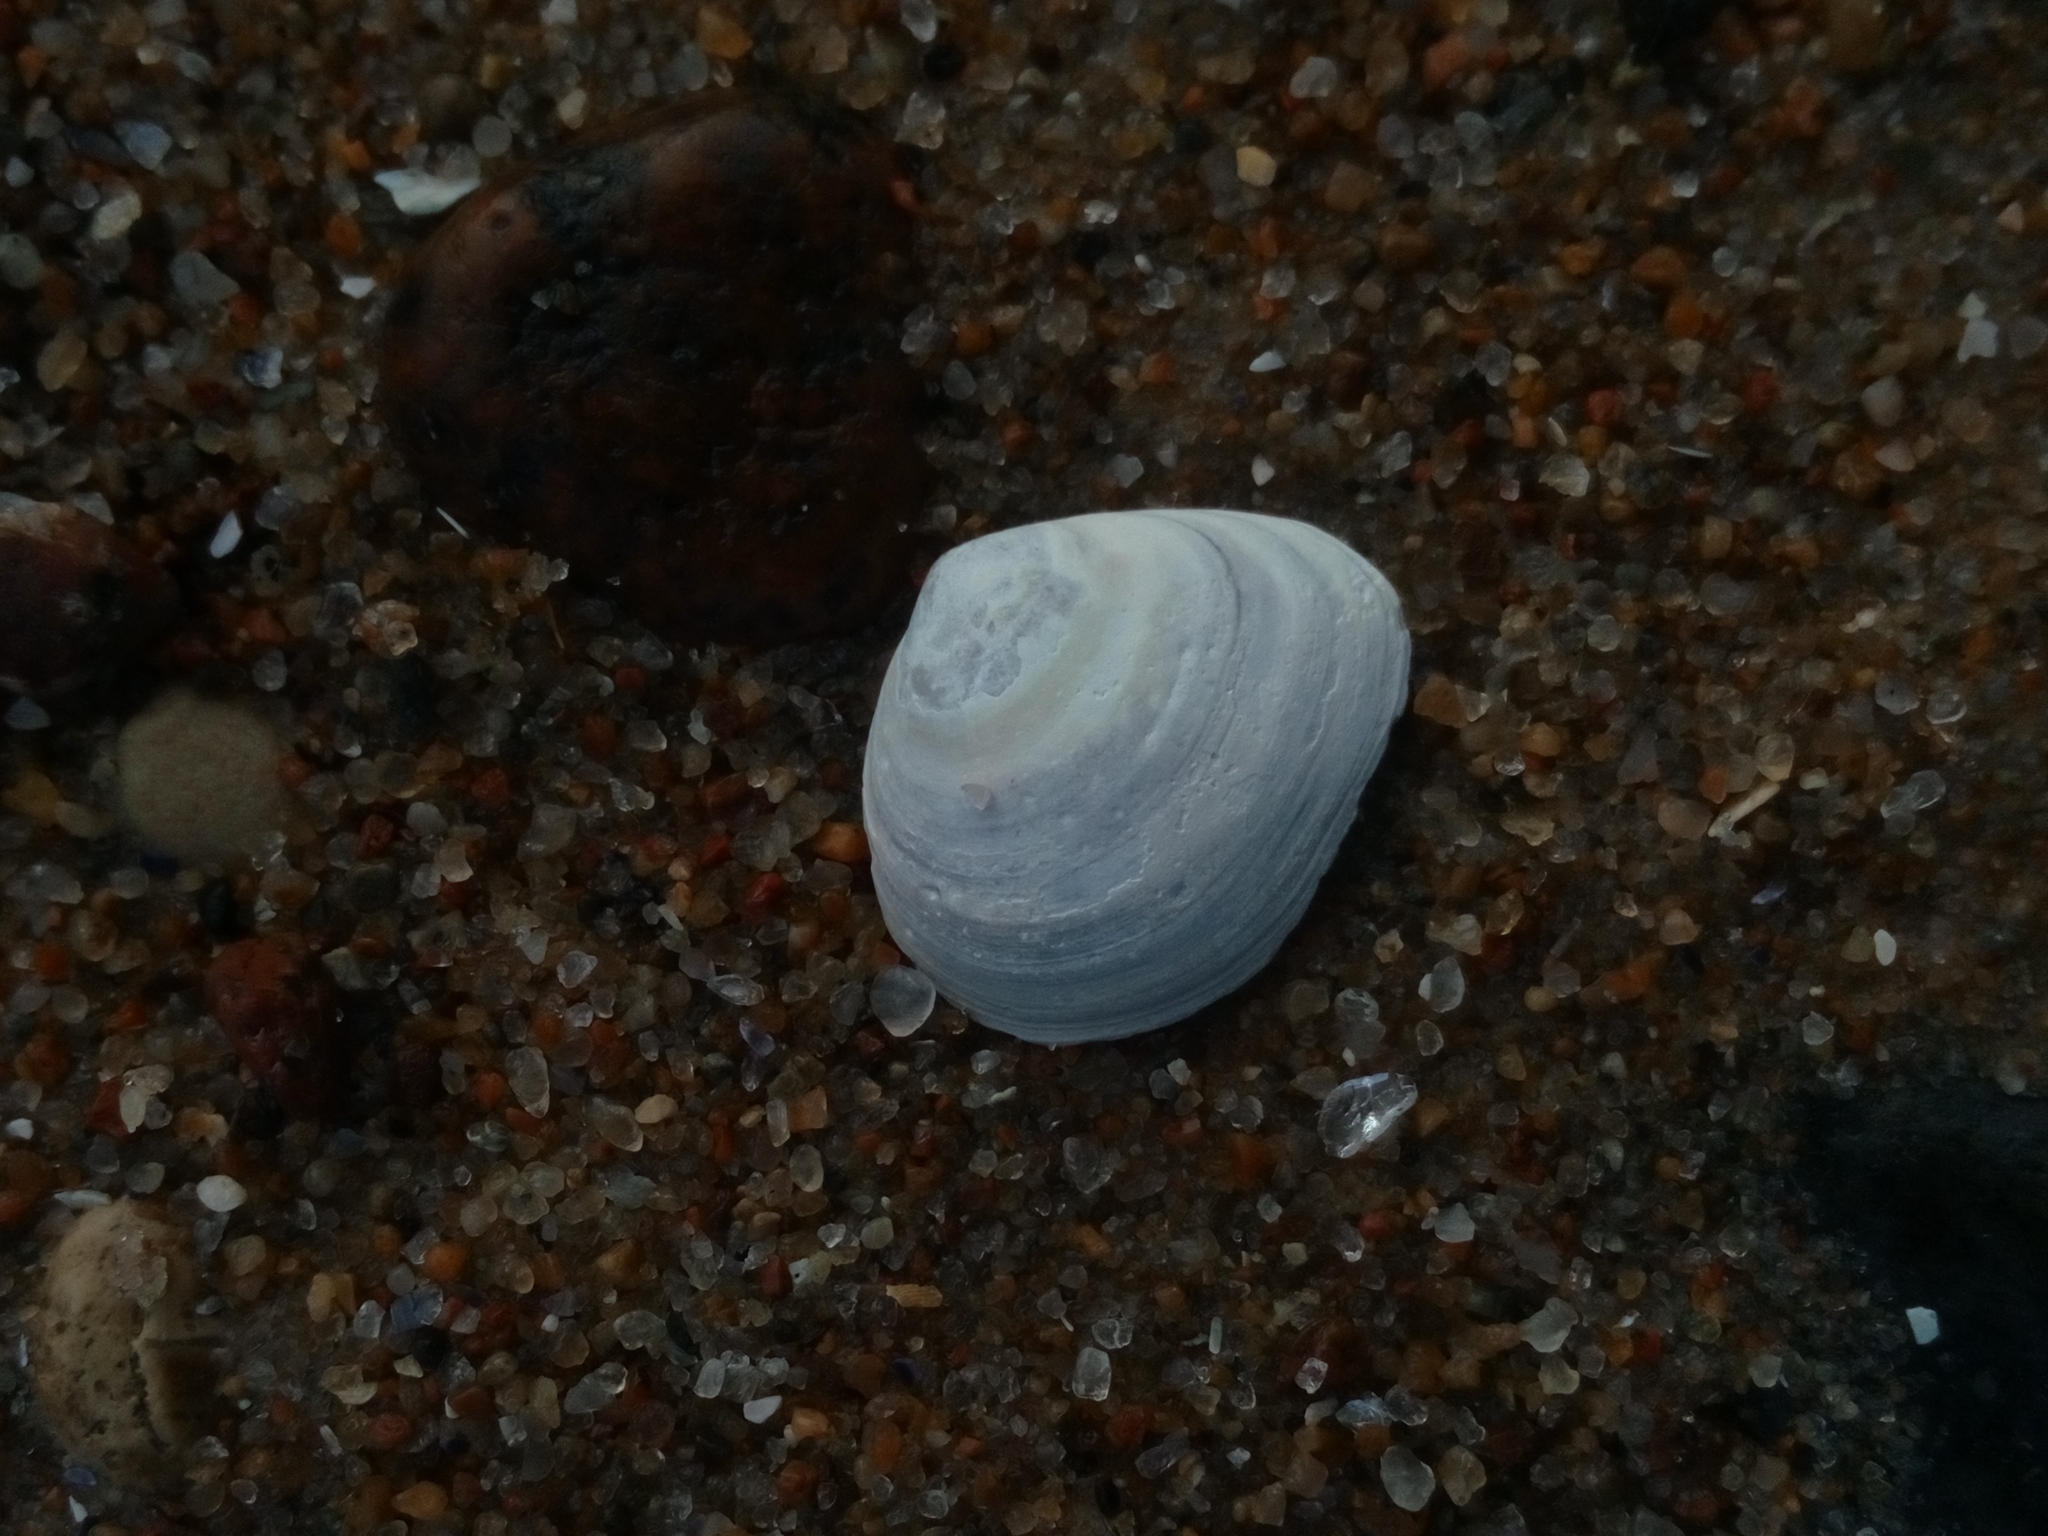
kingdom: Animalia
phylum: Mollusca
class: Bivalvia
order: Cardiida
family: Tellinidae
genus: Macoma
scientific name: Macoma balthica
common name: Baltic tellin
